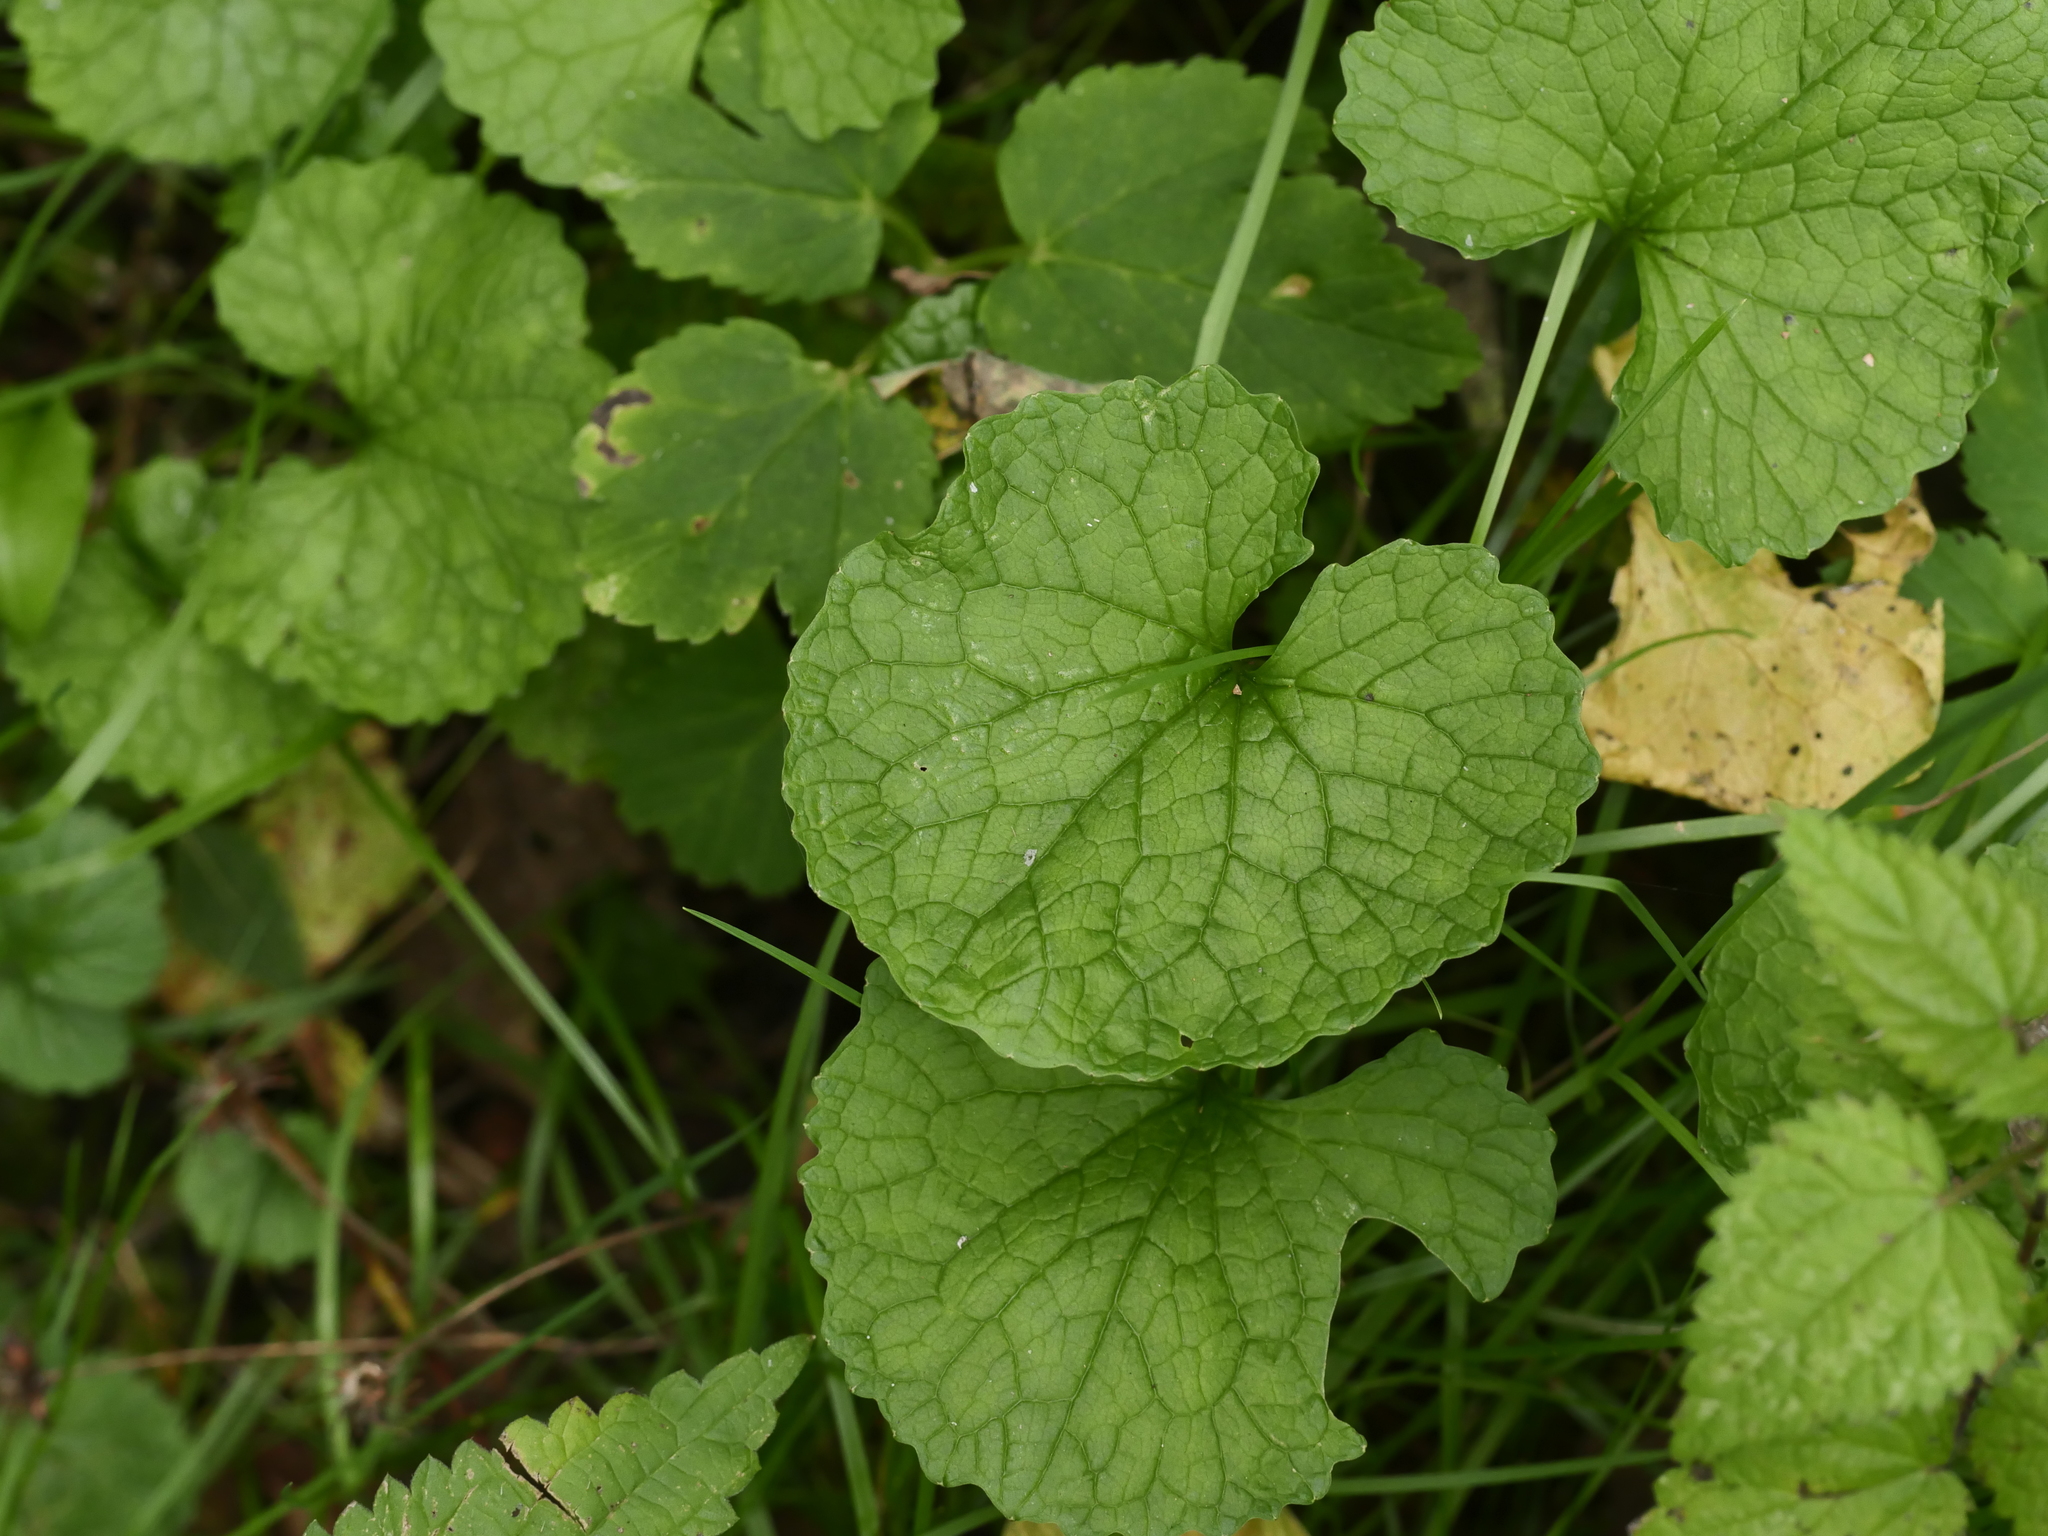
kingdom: Plantae
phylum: Tracheophyta
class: Magnoliopsida
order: Brassicales
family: Brassicaceae
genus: Alliaria
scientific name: Alliaria petiolata
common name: Garlic mustard
